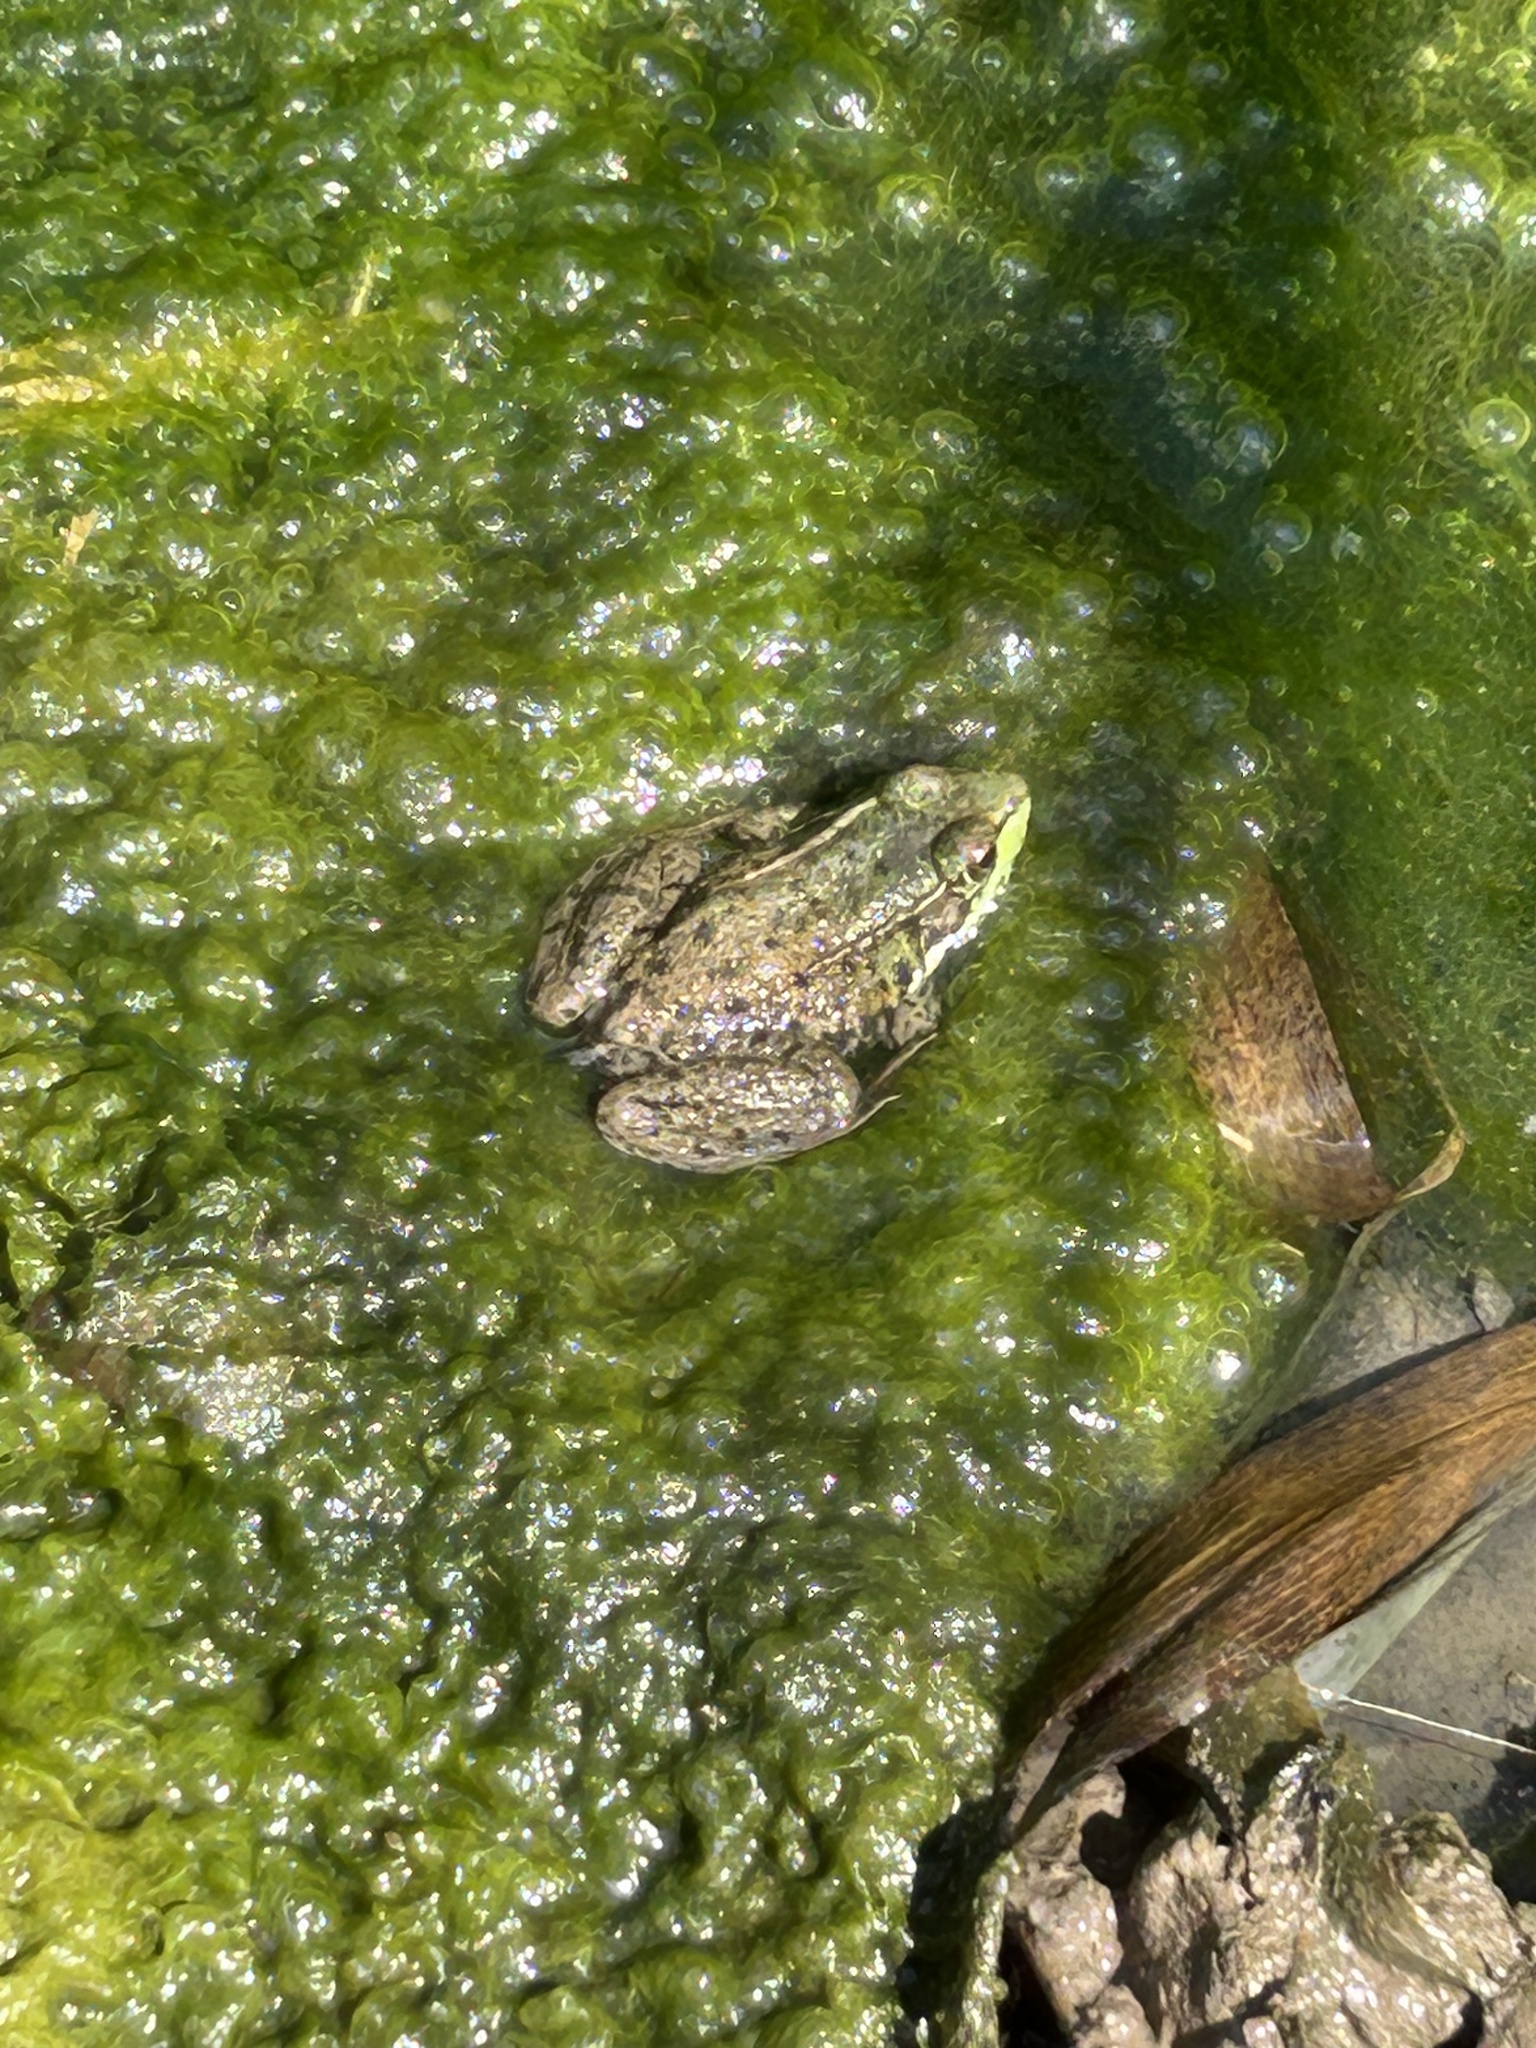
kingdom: Animalia
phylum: Chordata
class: Amphibia
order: Anura
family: Ranidae
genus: Lithobates
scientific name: Lithobates clamitans
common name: Green frog
